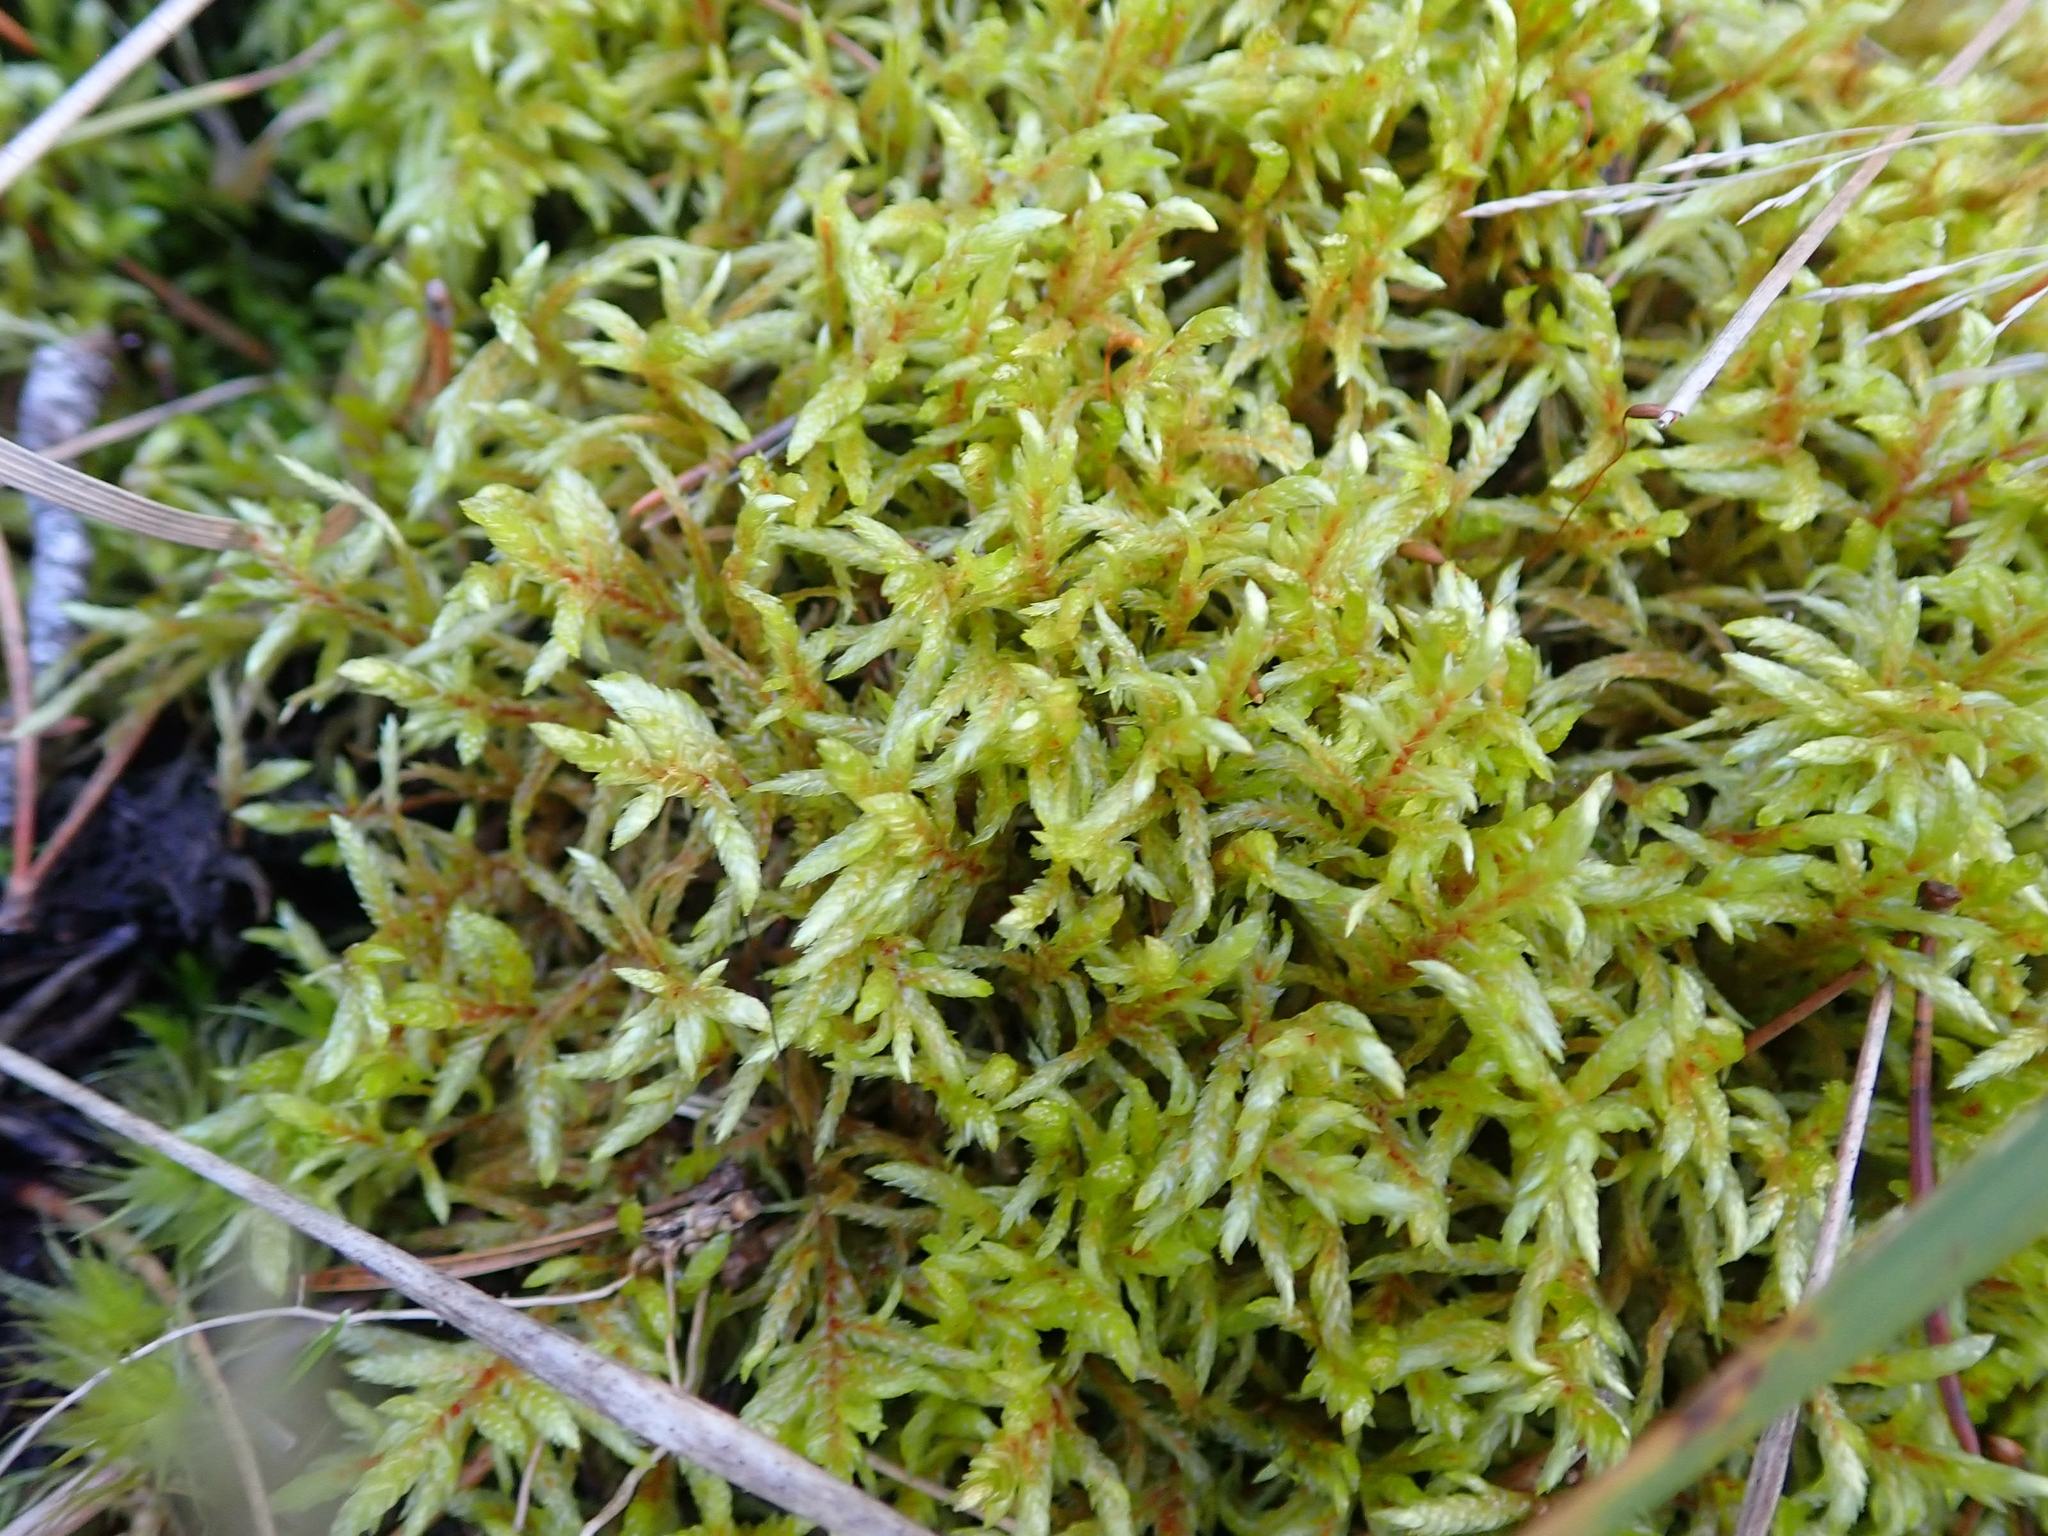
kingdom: Plantae
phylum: Bryophyta
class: Bryopsida
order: Hypnales
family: Hylocomiaceae
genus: Pleurozium
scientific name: Pleurozium schreberi
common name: Red-stemmed feather moss
